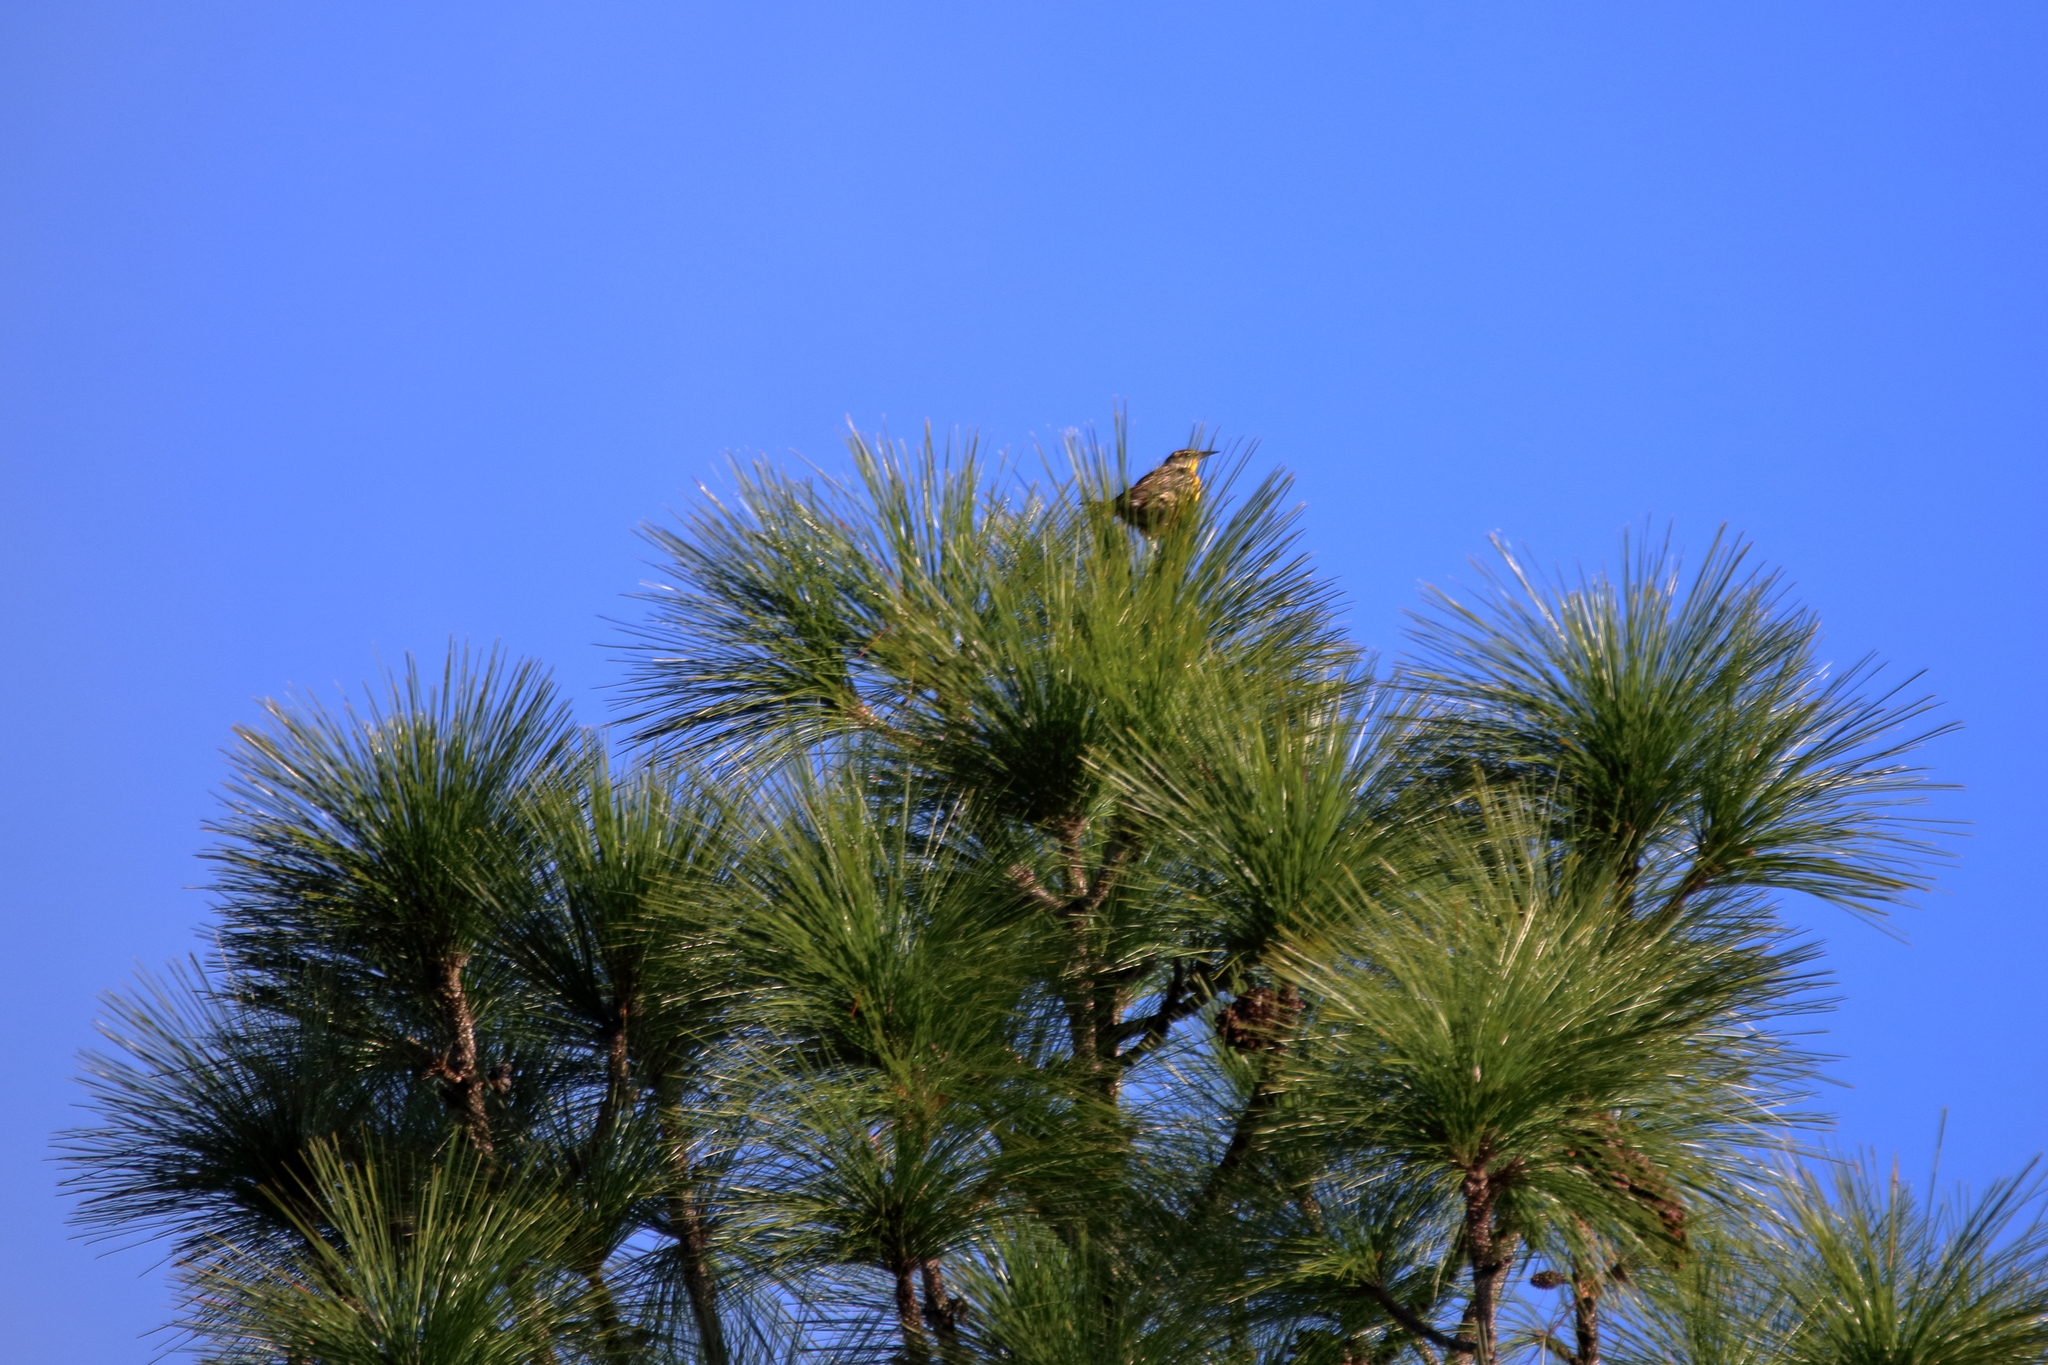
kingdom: Animalia
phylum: Chordata
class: Aves
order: Passeriformes
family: Icteridae
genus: Sturnella
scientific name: Sturnella magna
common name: Eastern meadowlark
